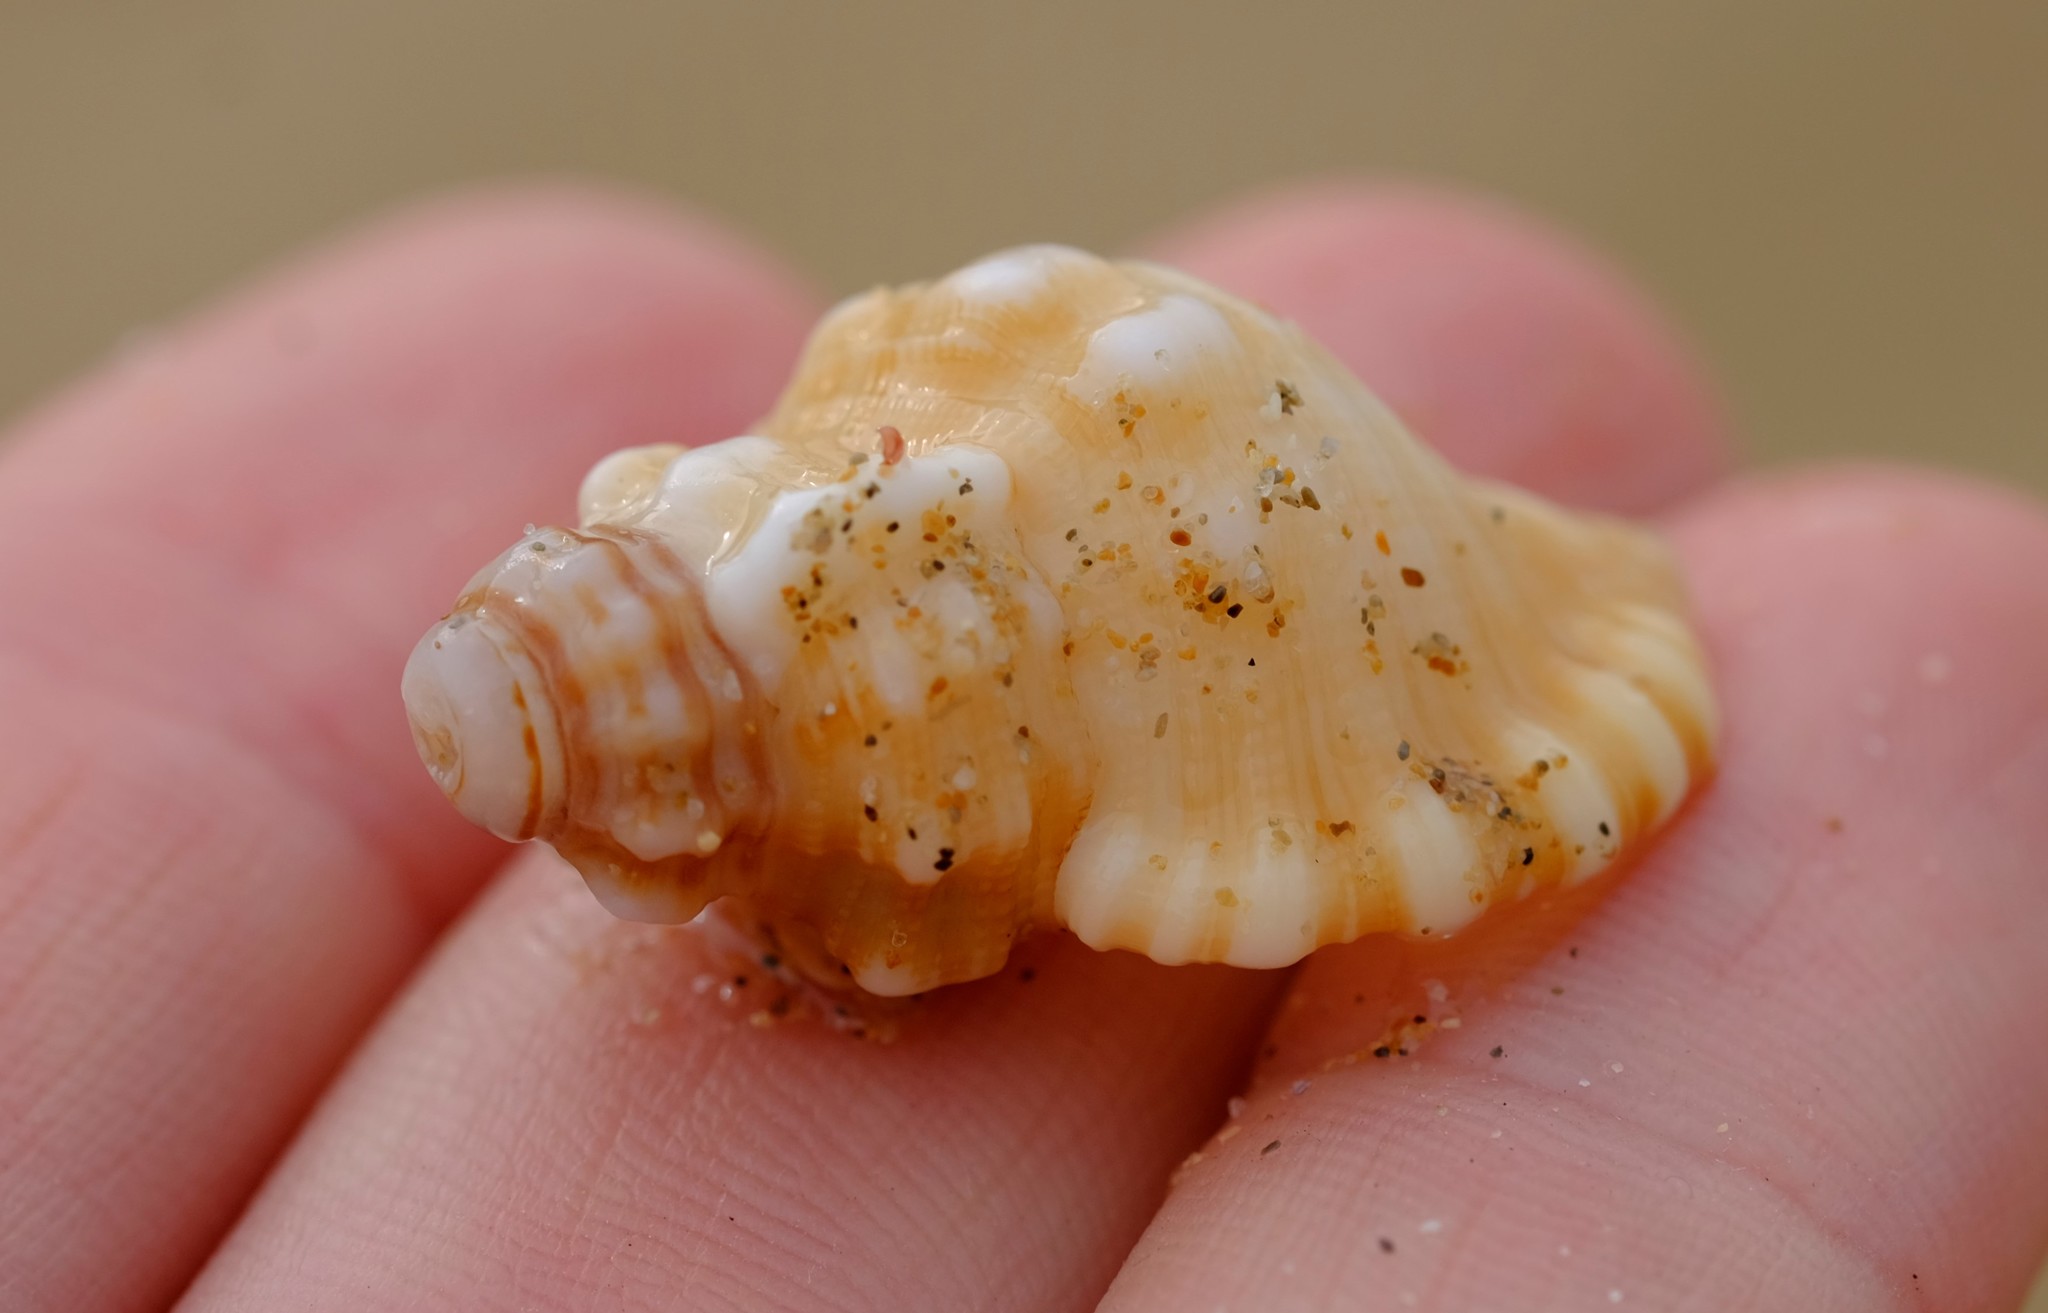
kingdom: Animalia
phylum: Mollusca
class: Gastropoda
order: Littorinimorpha
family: Cymatiidae
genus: Cabestana
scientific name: Cabestana tabulata
